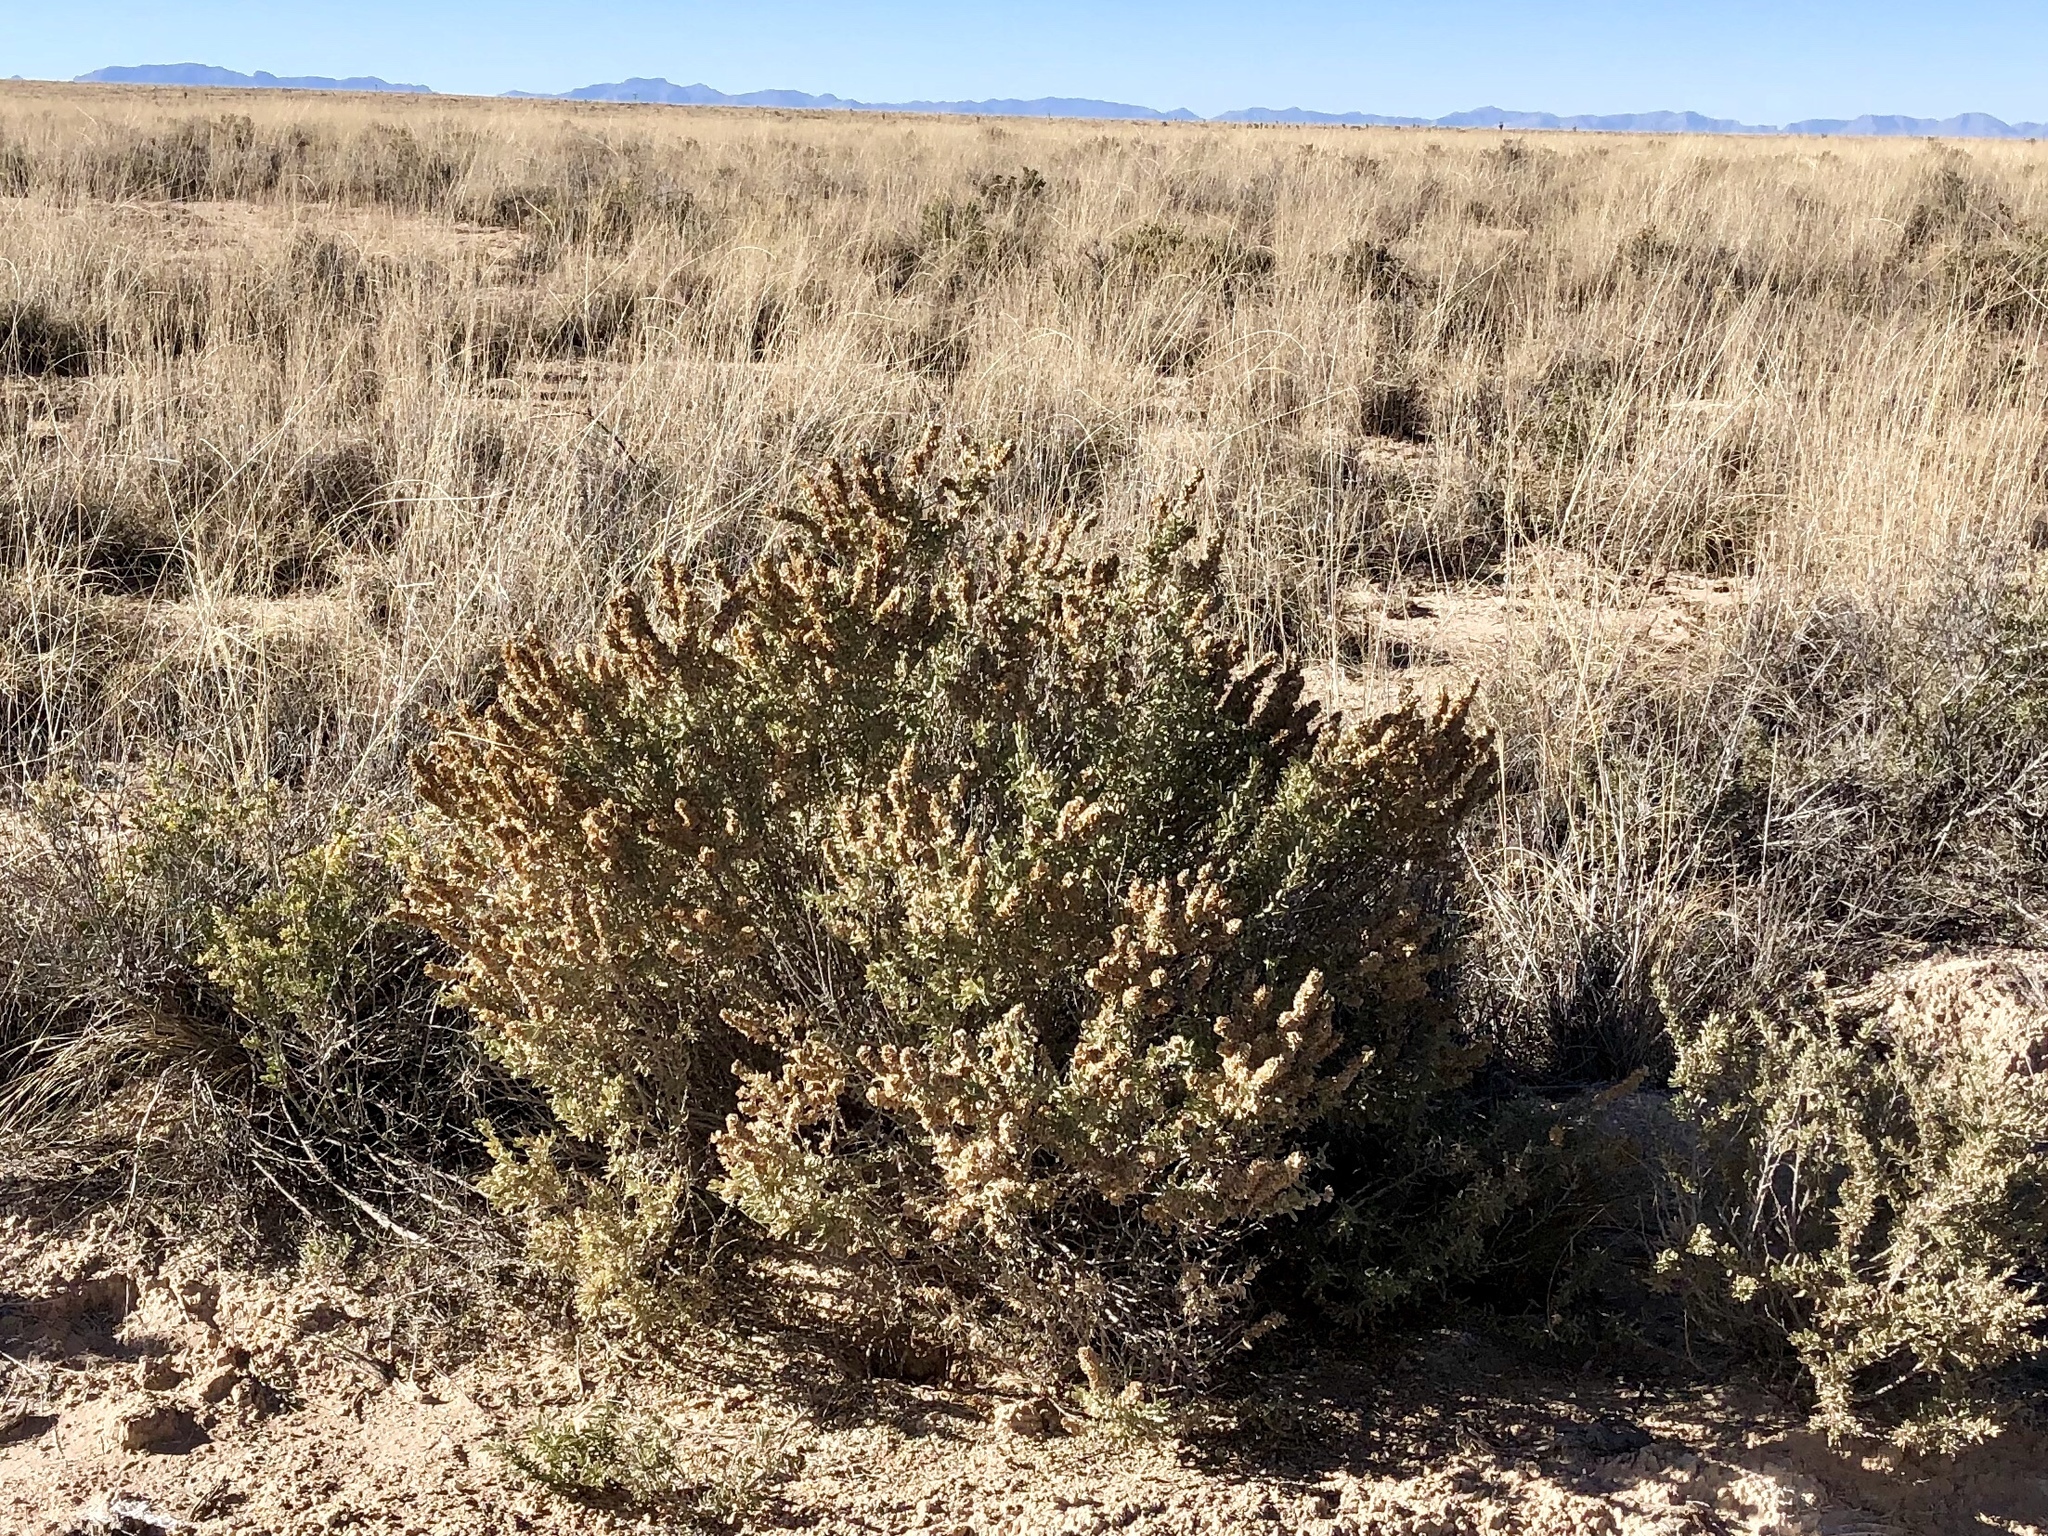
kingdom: Plantae
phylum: Tracheophyta
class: Magnoliopsida
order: Caryophyllales
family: Amaranthaceae
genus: Atriplex
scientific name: Atriplex canescens
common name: Four-wing saltbush
